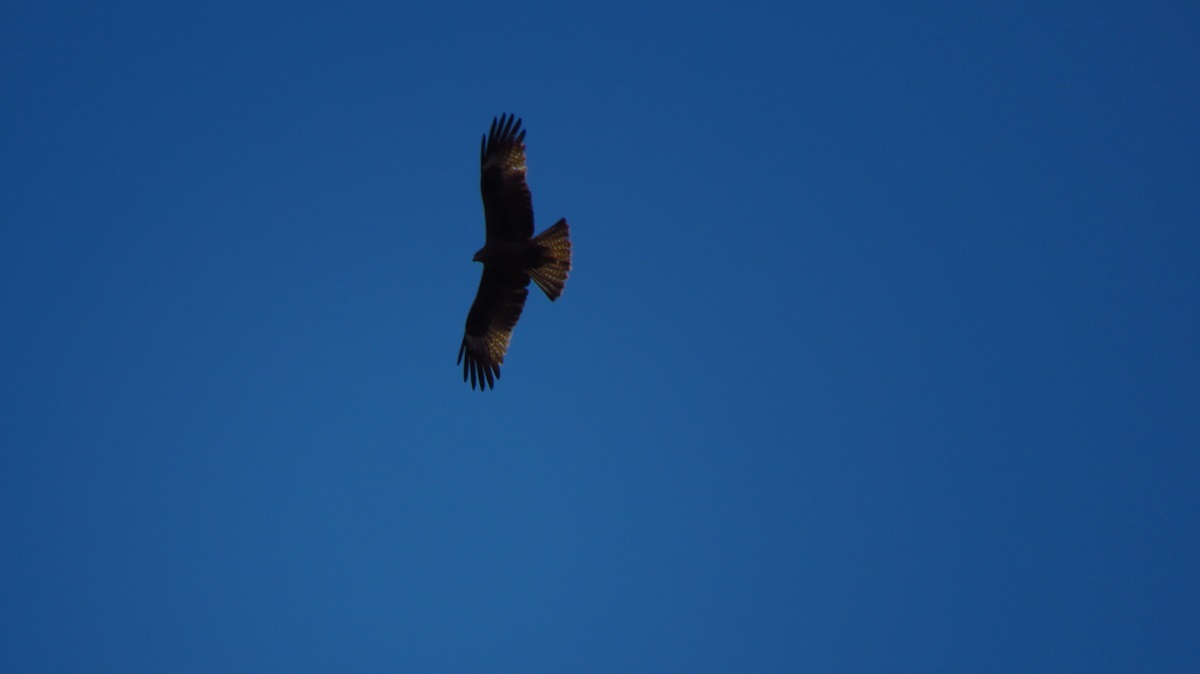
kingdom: Animalia
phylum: Chordata
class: Aves
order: Accipitriformes
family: Accipitridae
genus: Milvus
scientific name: Milvus migrans
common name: Black kite
